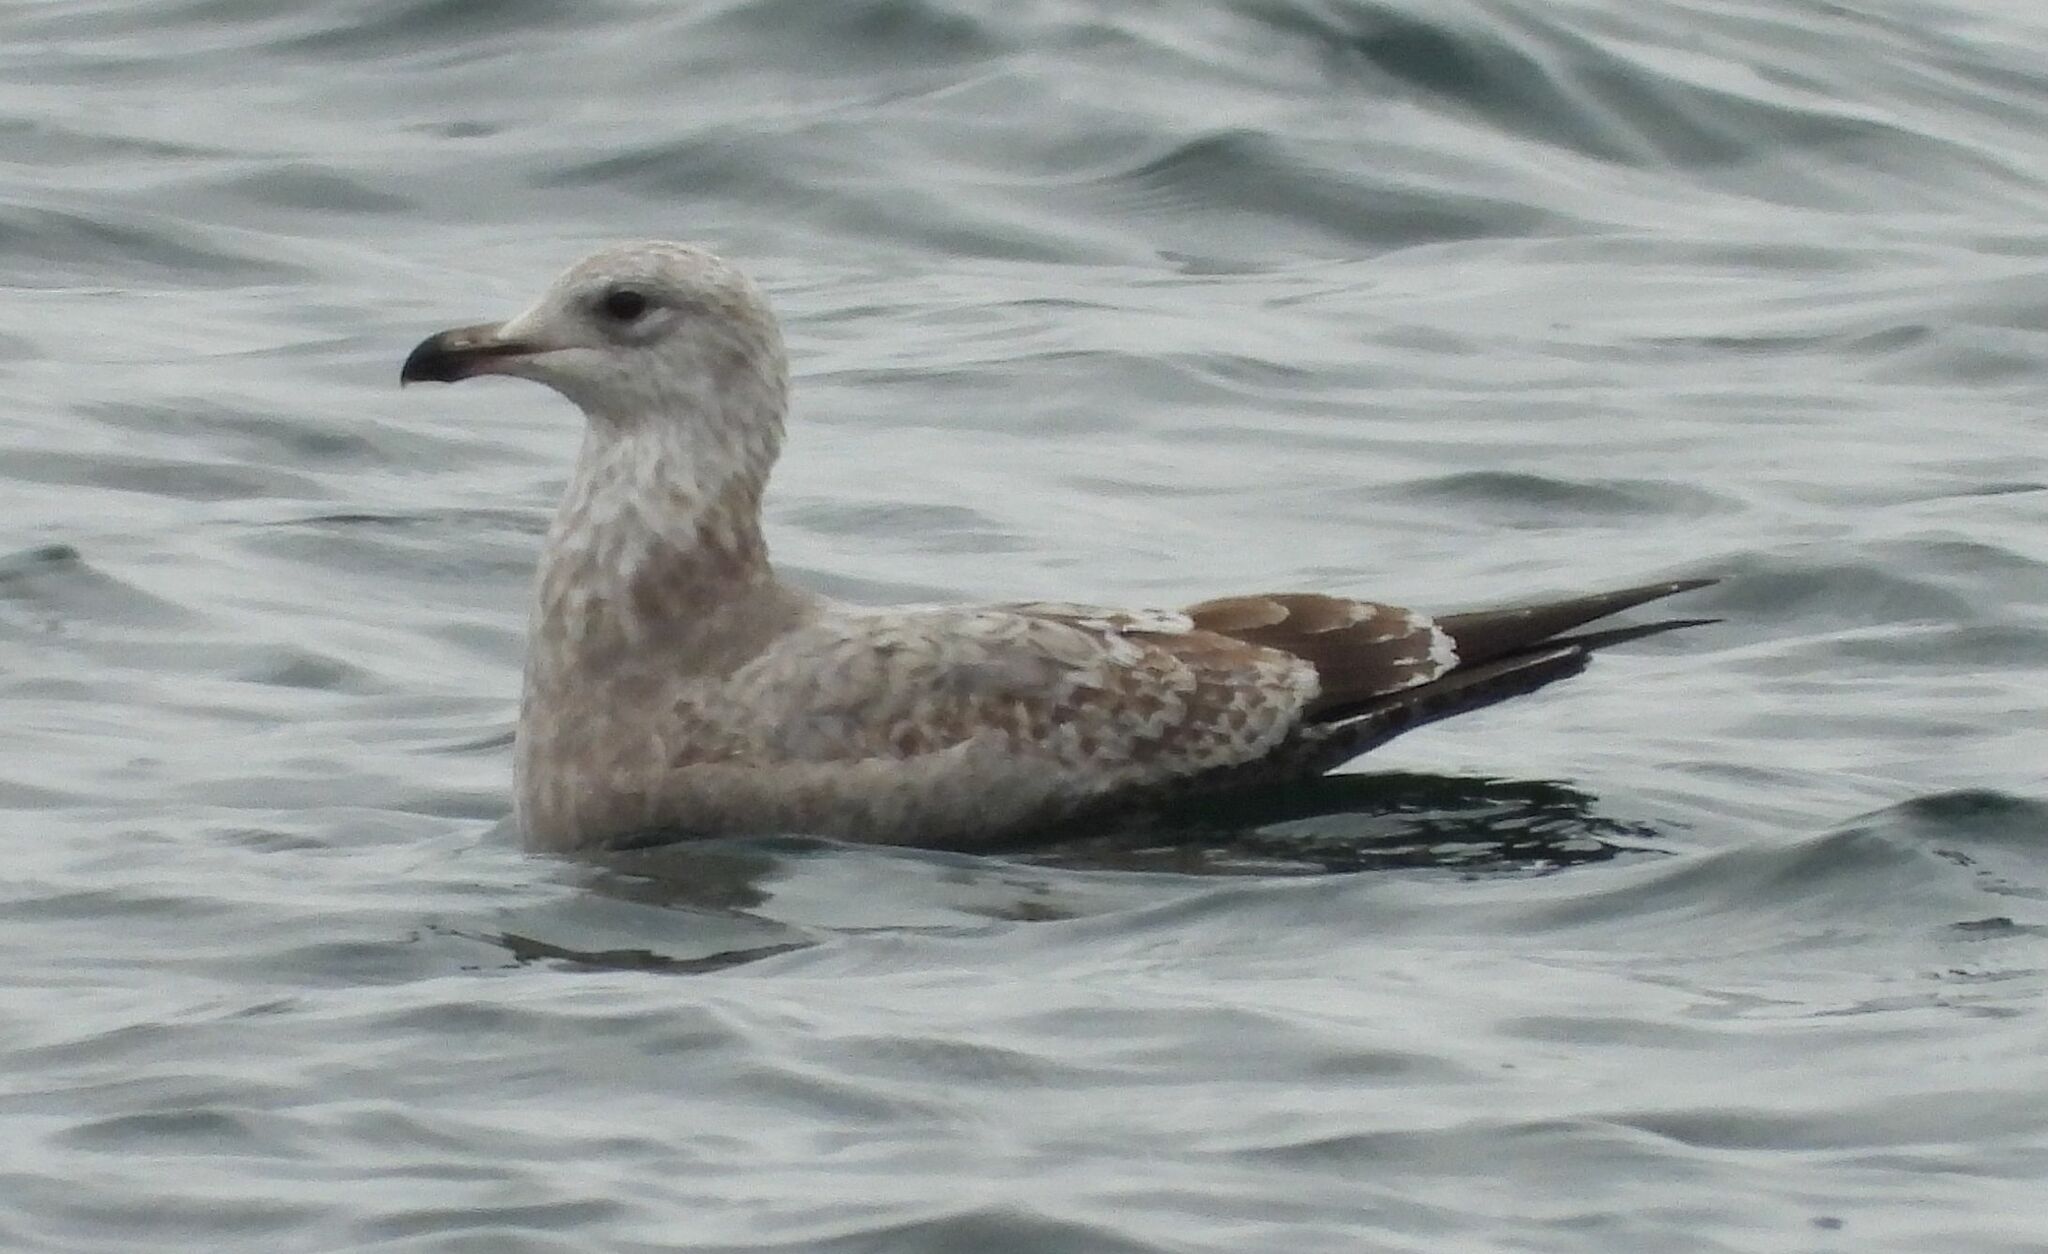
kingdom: Animalia
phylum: Chordata
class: Aves
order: Charadriiformes
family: Laridae
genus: Larus
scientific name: Larus argentatus
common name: Herring gull
